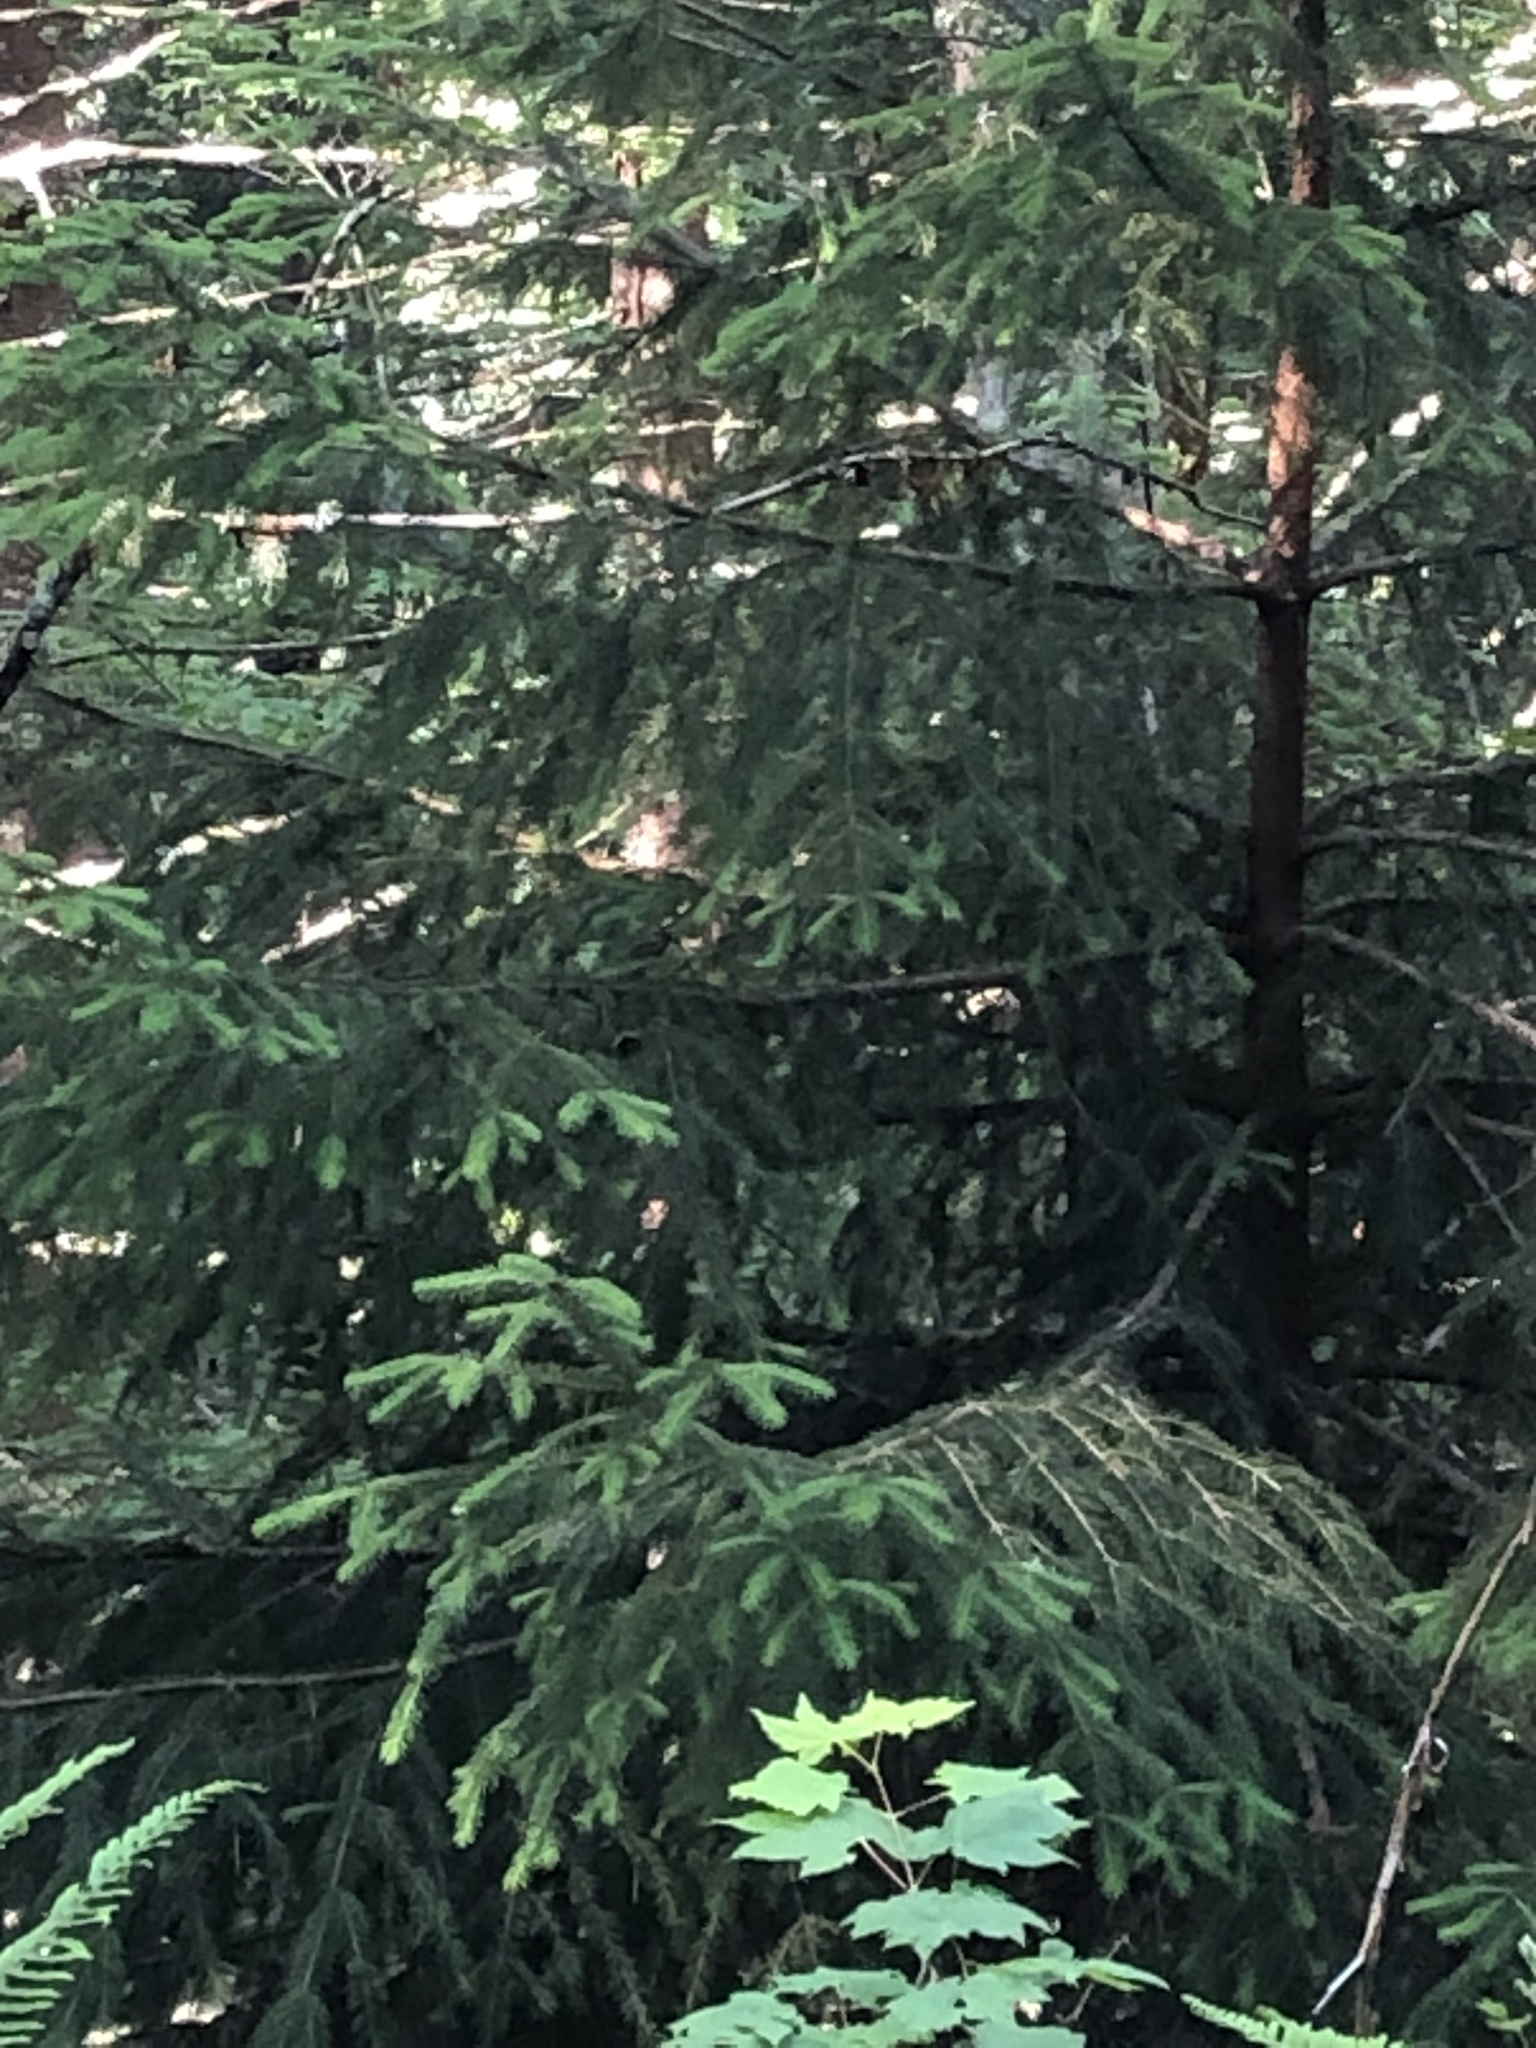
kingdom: Plantae
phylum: Tracheophyta
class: Pinopsida
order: Pinales
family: Pinaceae
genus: Picea
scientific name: Picea sitchensis
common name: Sitka spruce
